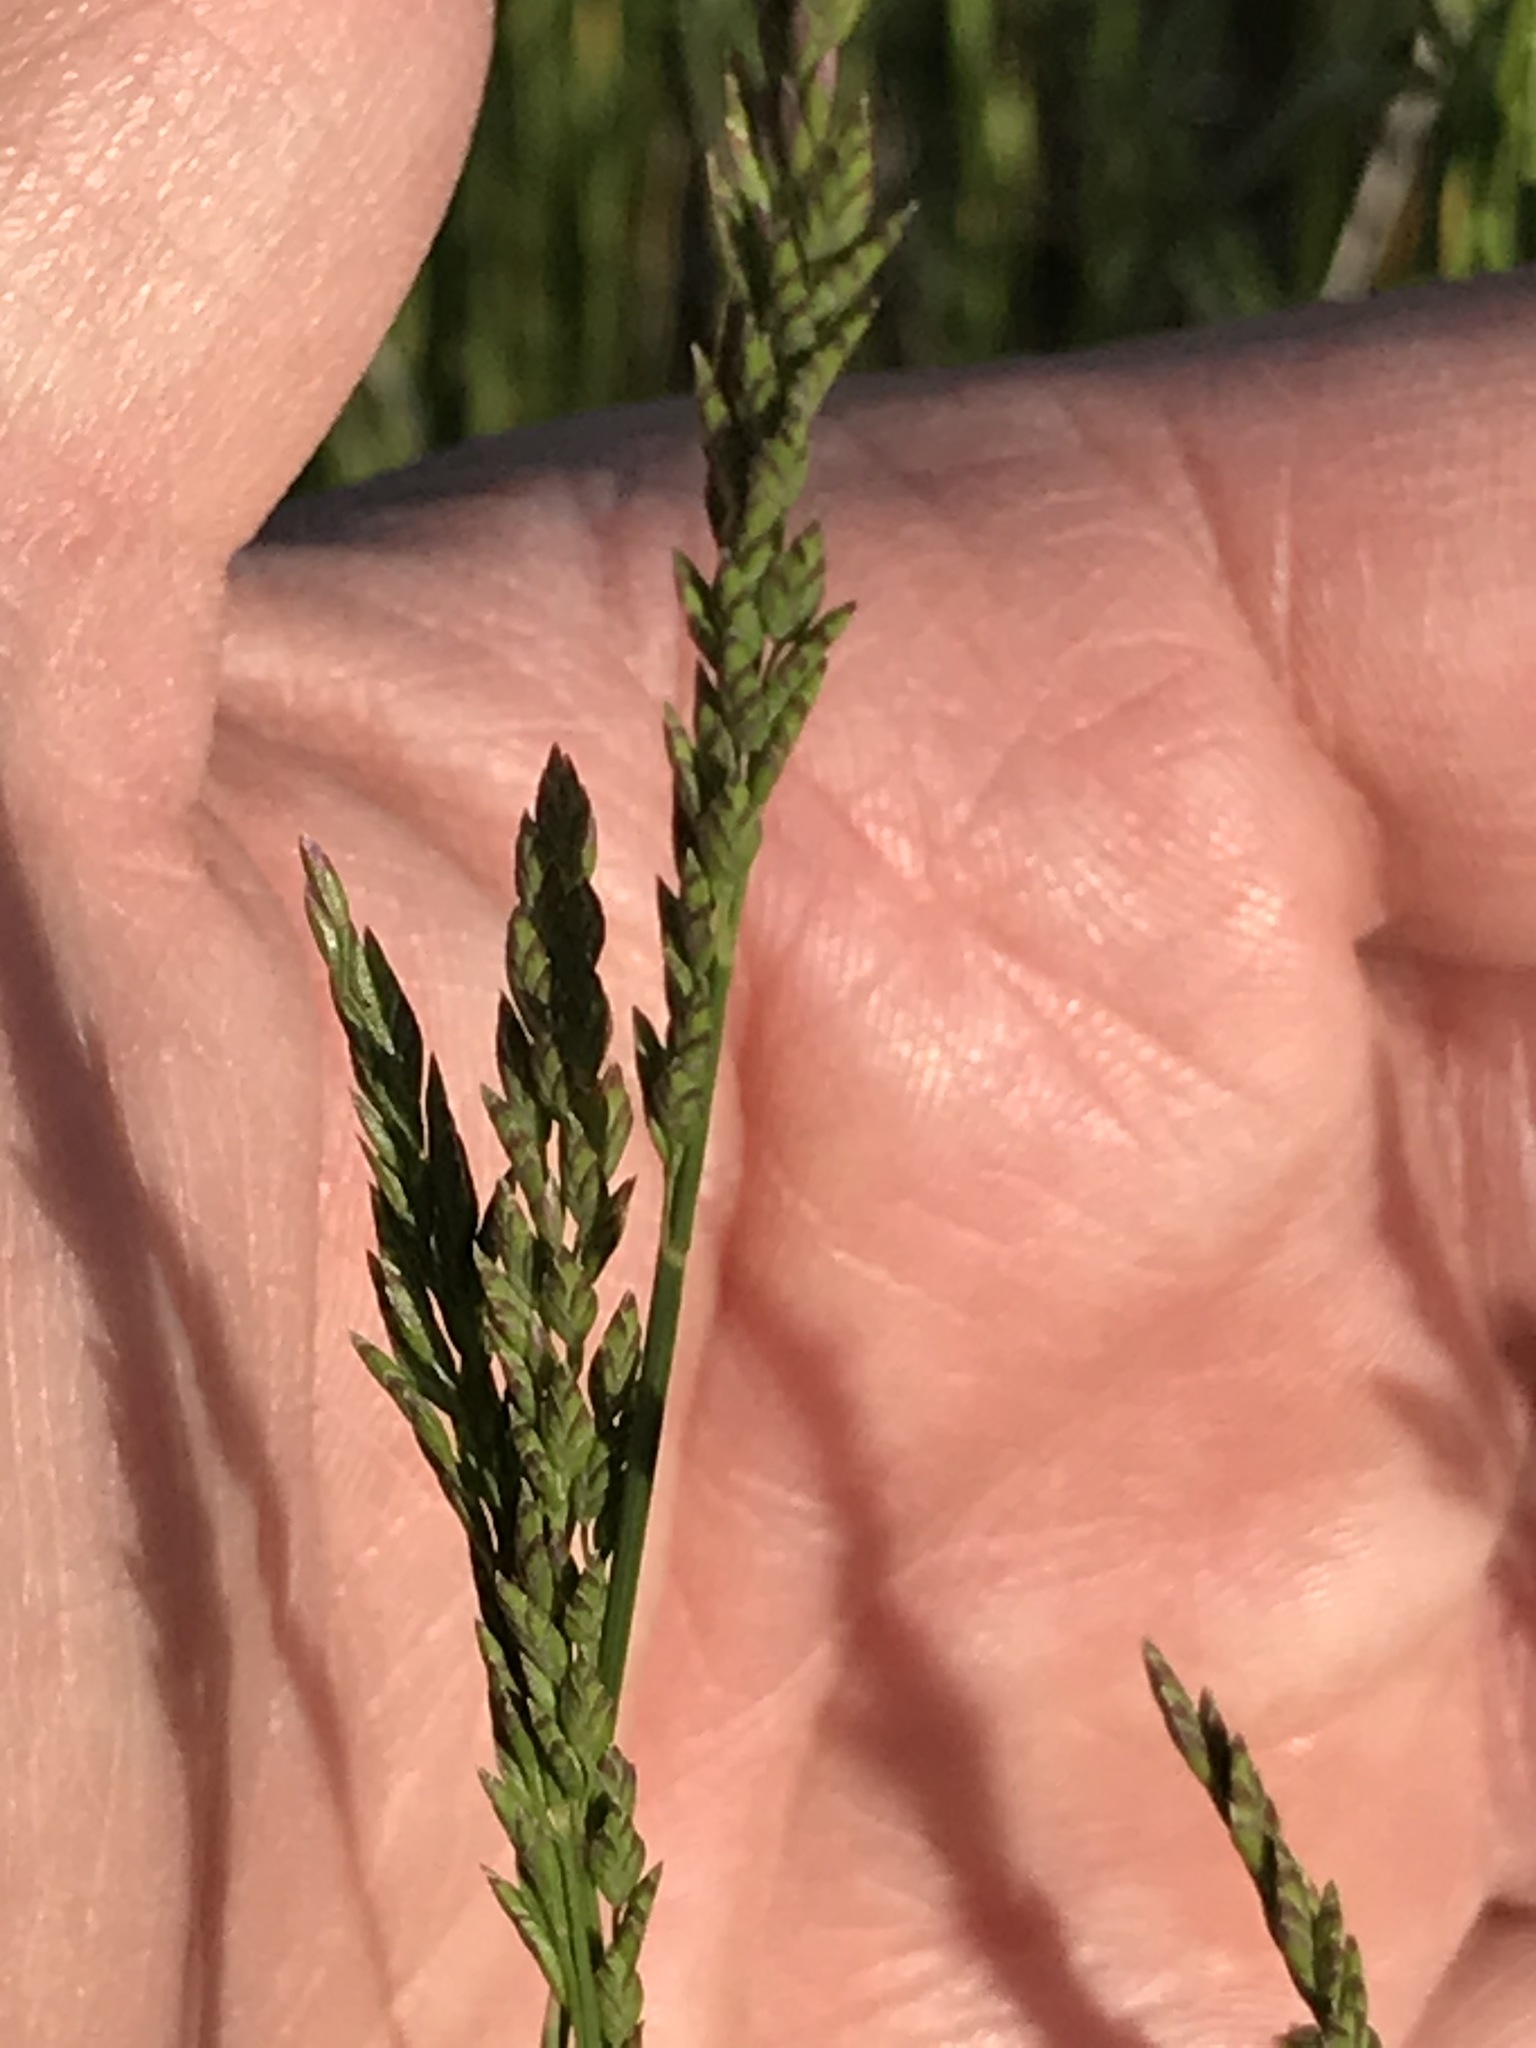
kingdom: Plantae
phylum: Tracheophyta
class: Liliopsida
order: Poales
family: Poaceae
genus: Poa
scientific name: Poa compressa
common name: Canada bluegrass
